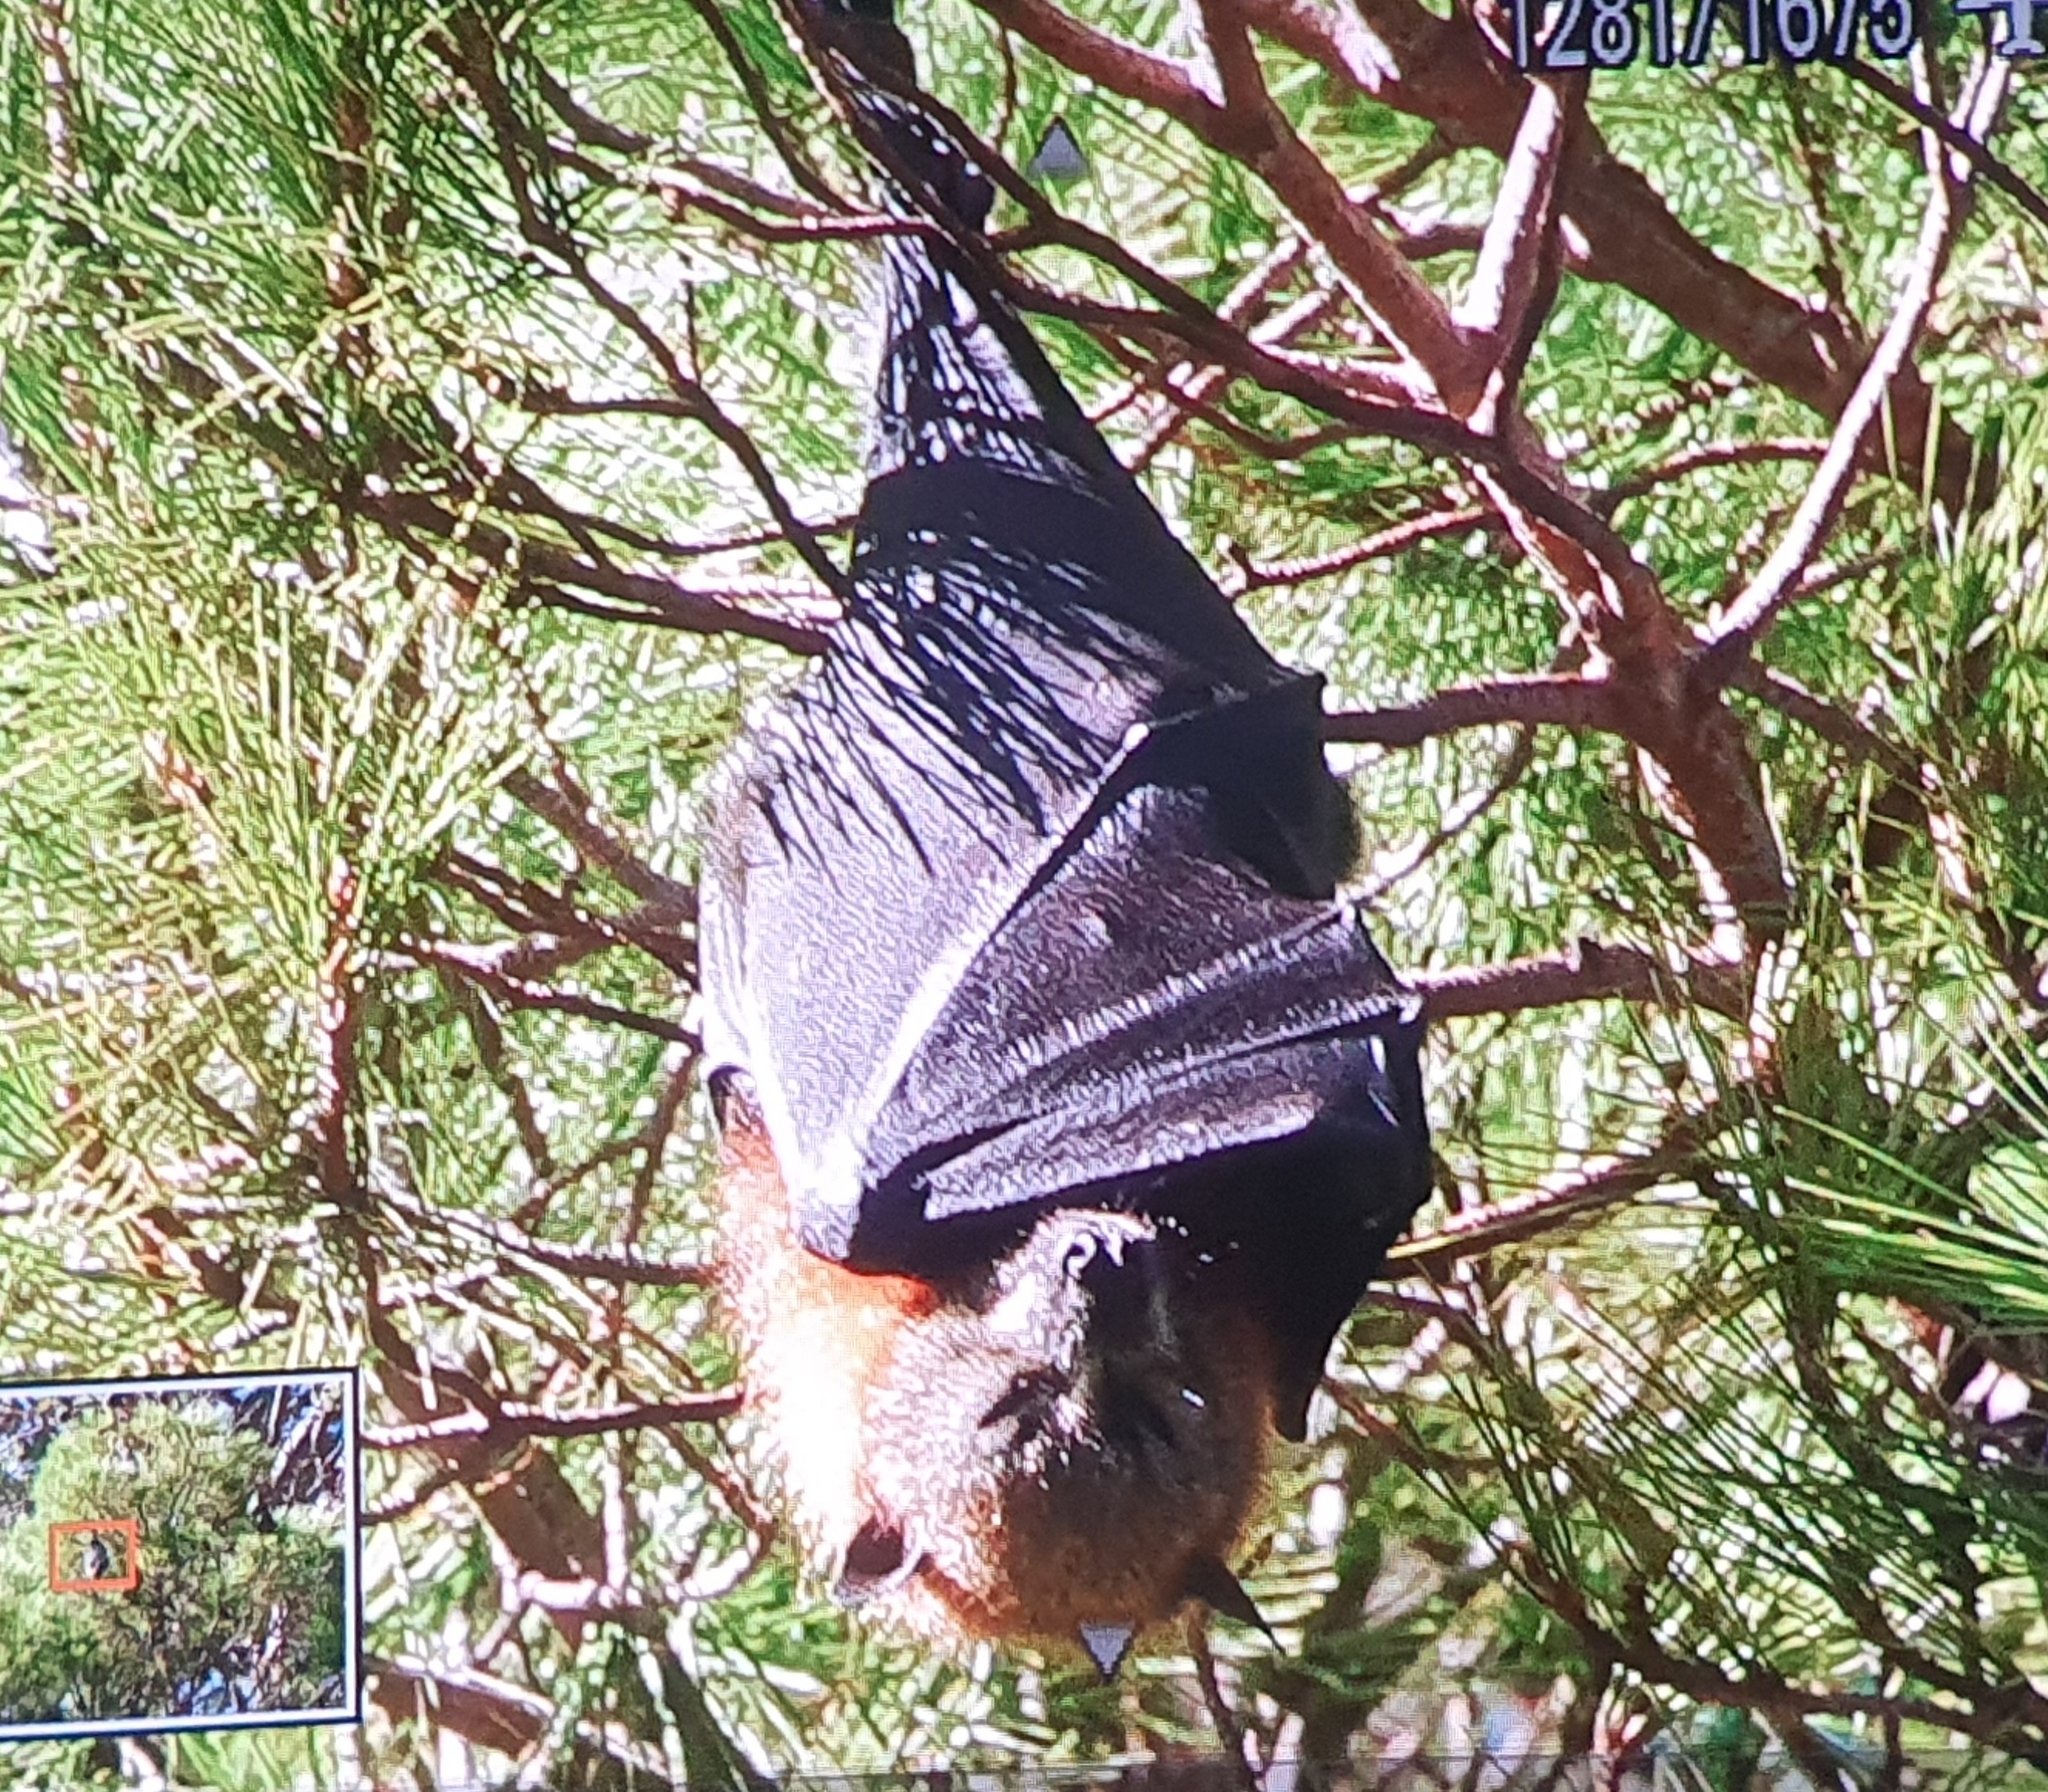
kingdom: Animalia
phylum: Chordata
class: Mammalia
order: Chiroptera
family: Pteropodidae
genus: Pteropus
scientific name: Pteropus poliocephalus
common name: Gray-headed flying fox
